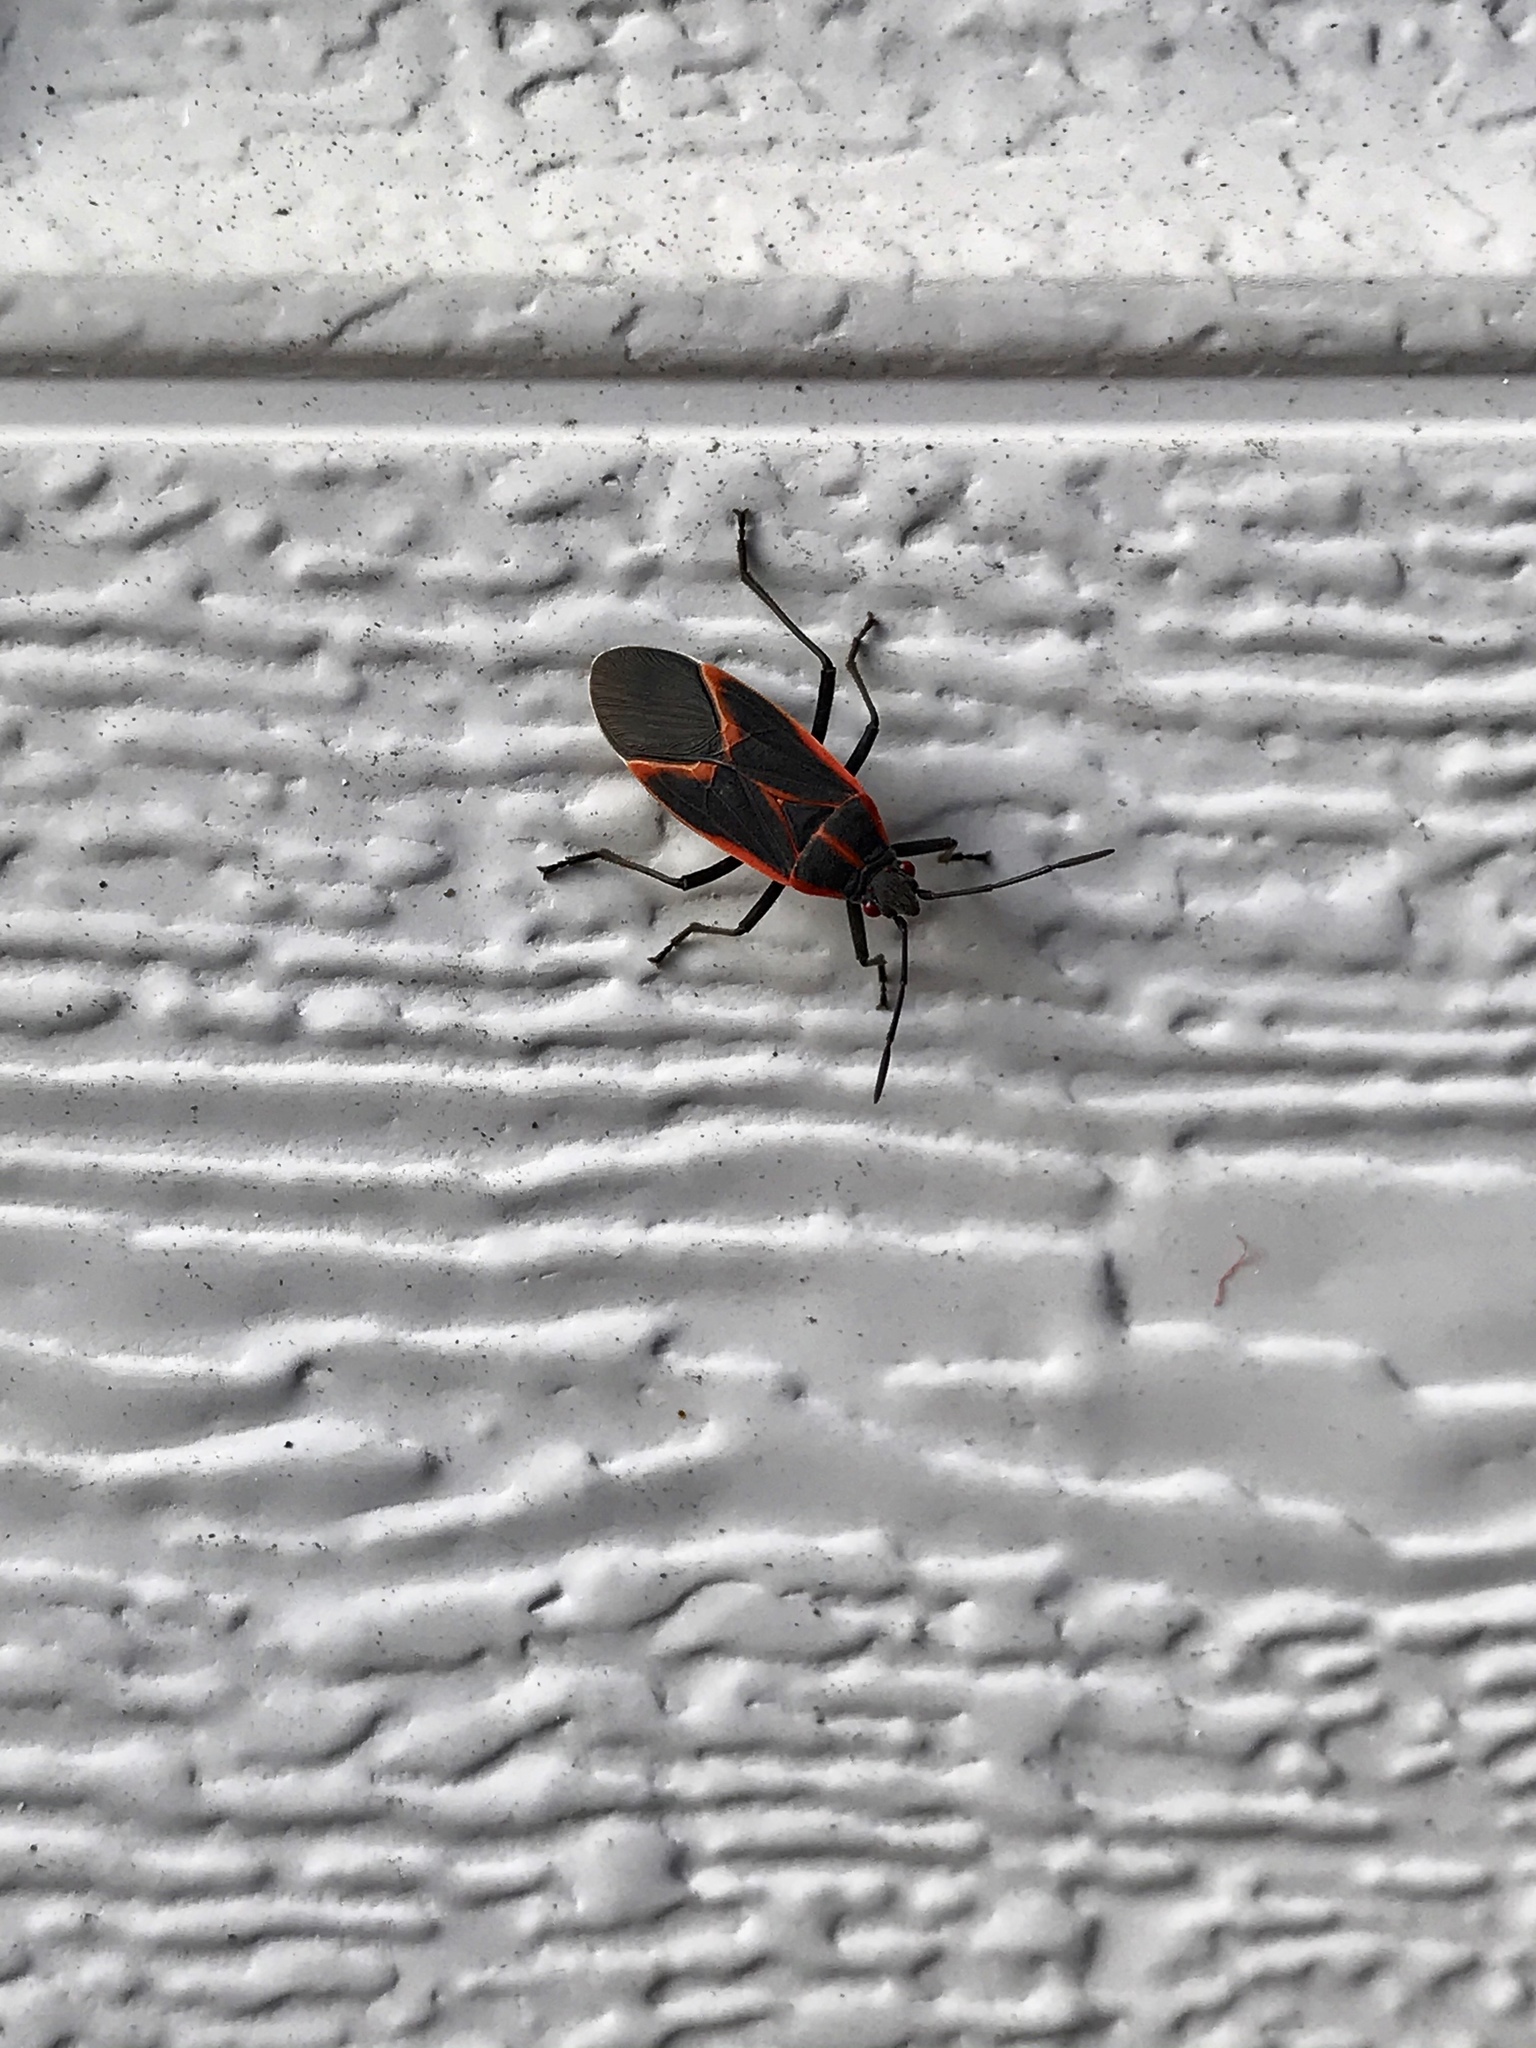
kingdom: Animalia
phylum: Arthropoda
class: Insecta
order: Hemiptera
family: Rhopalidae
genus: Boisea
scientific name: Boisea trivittata
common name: Boxelder bug
